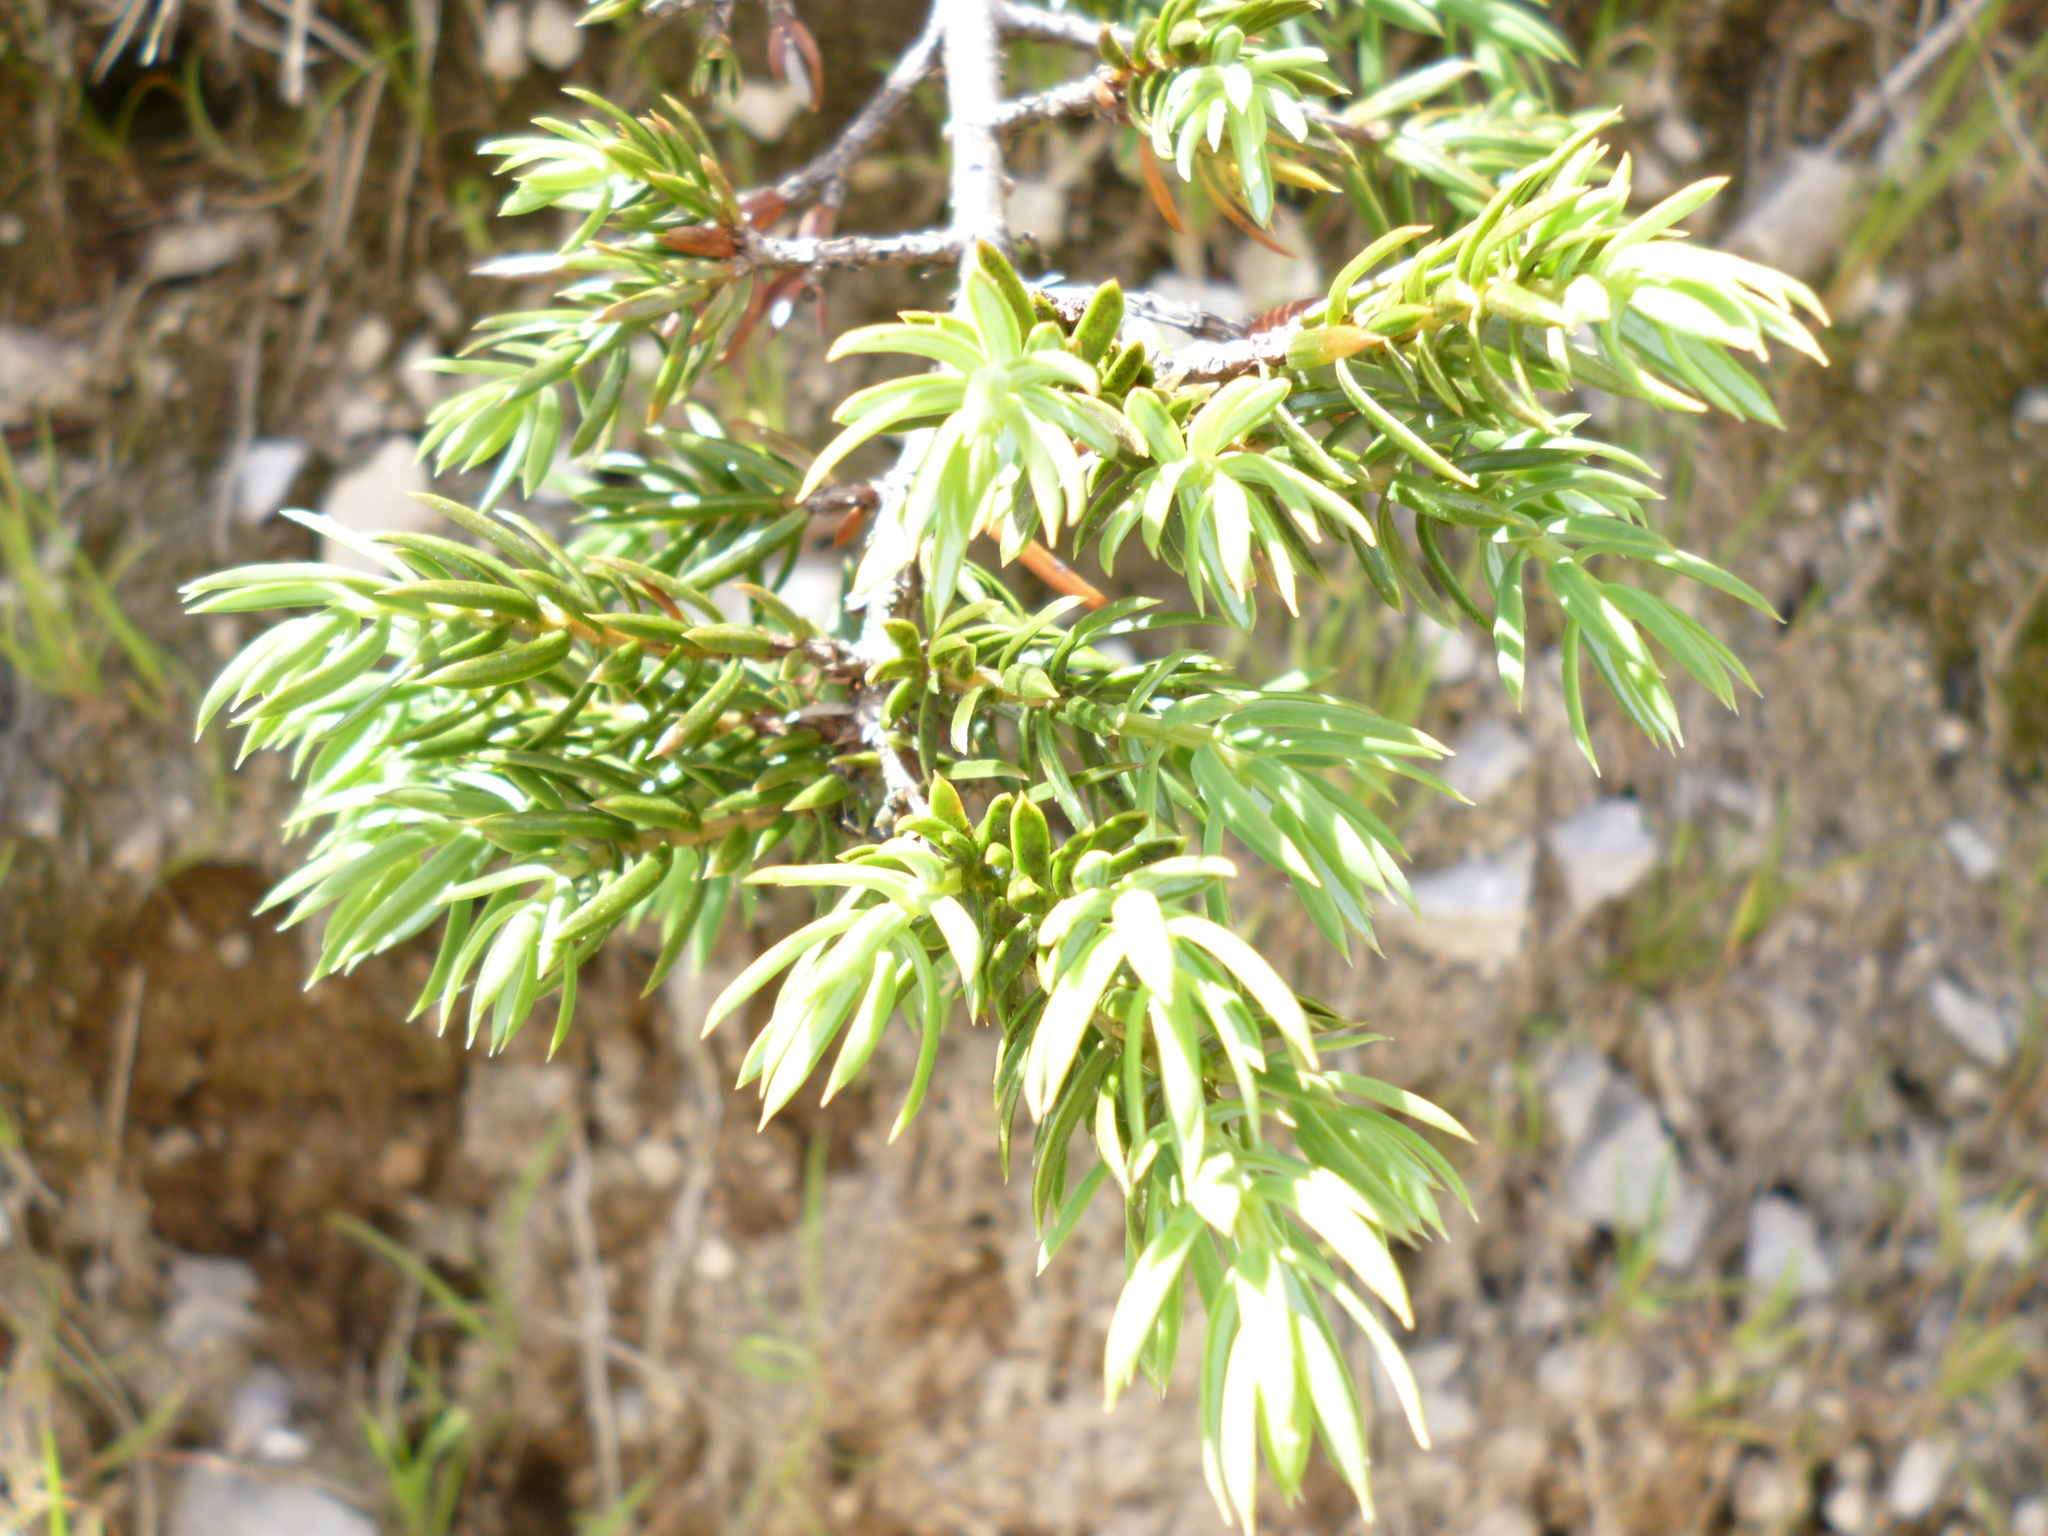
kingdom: Plantae
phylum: Tracheophyta
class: Pinopsida
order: Pinales
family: Cupressaceae
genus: Juniperus
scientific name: Juniperus communis
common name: Common juniper
